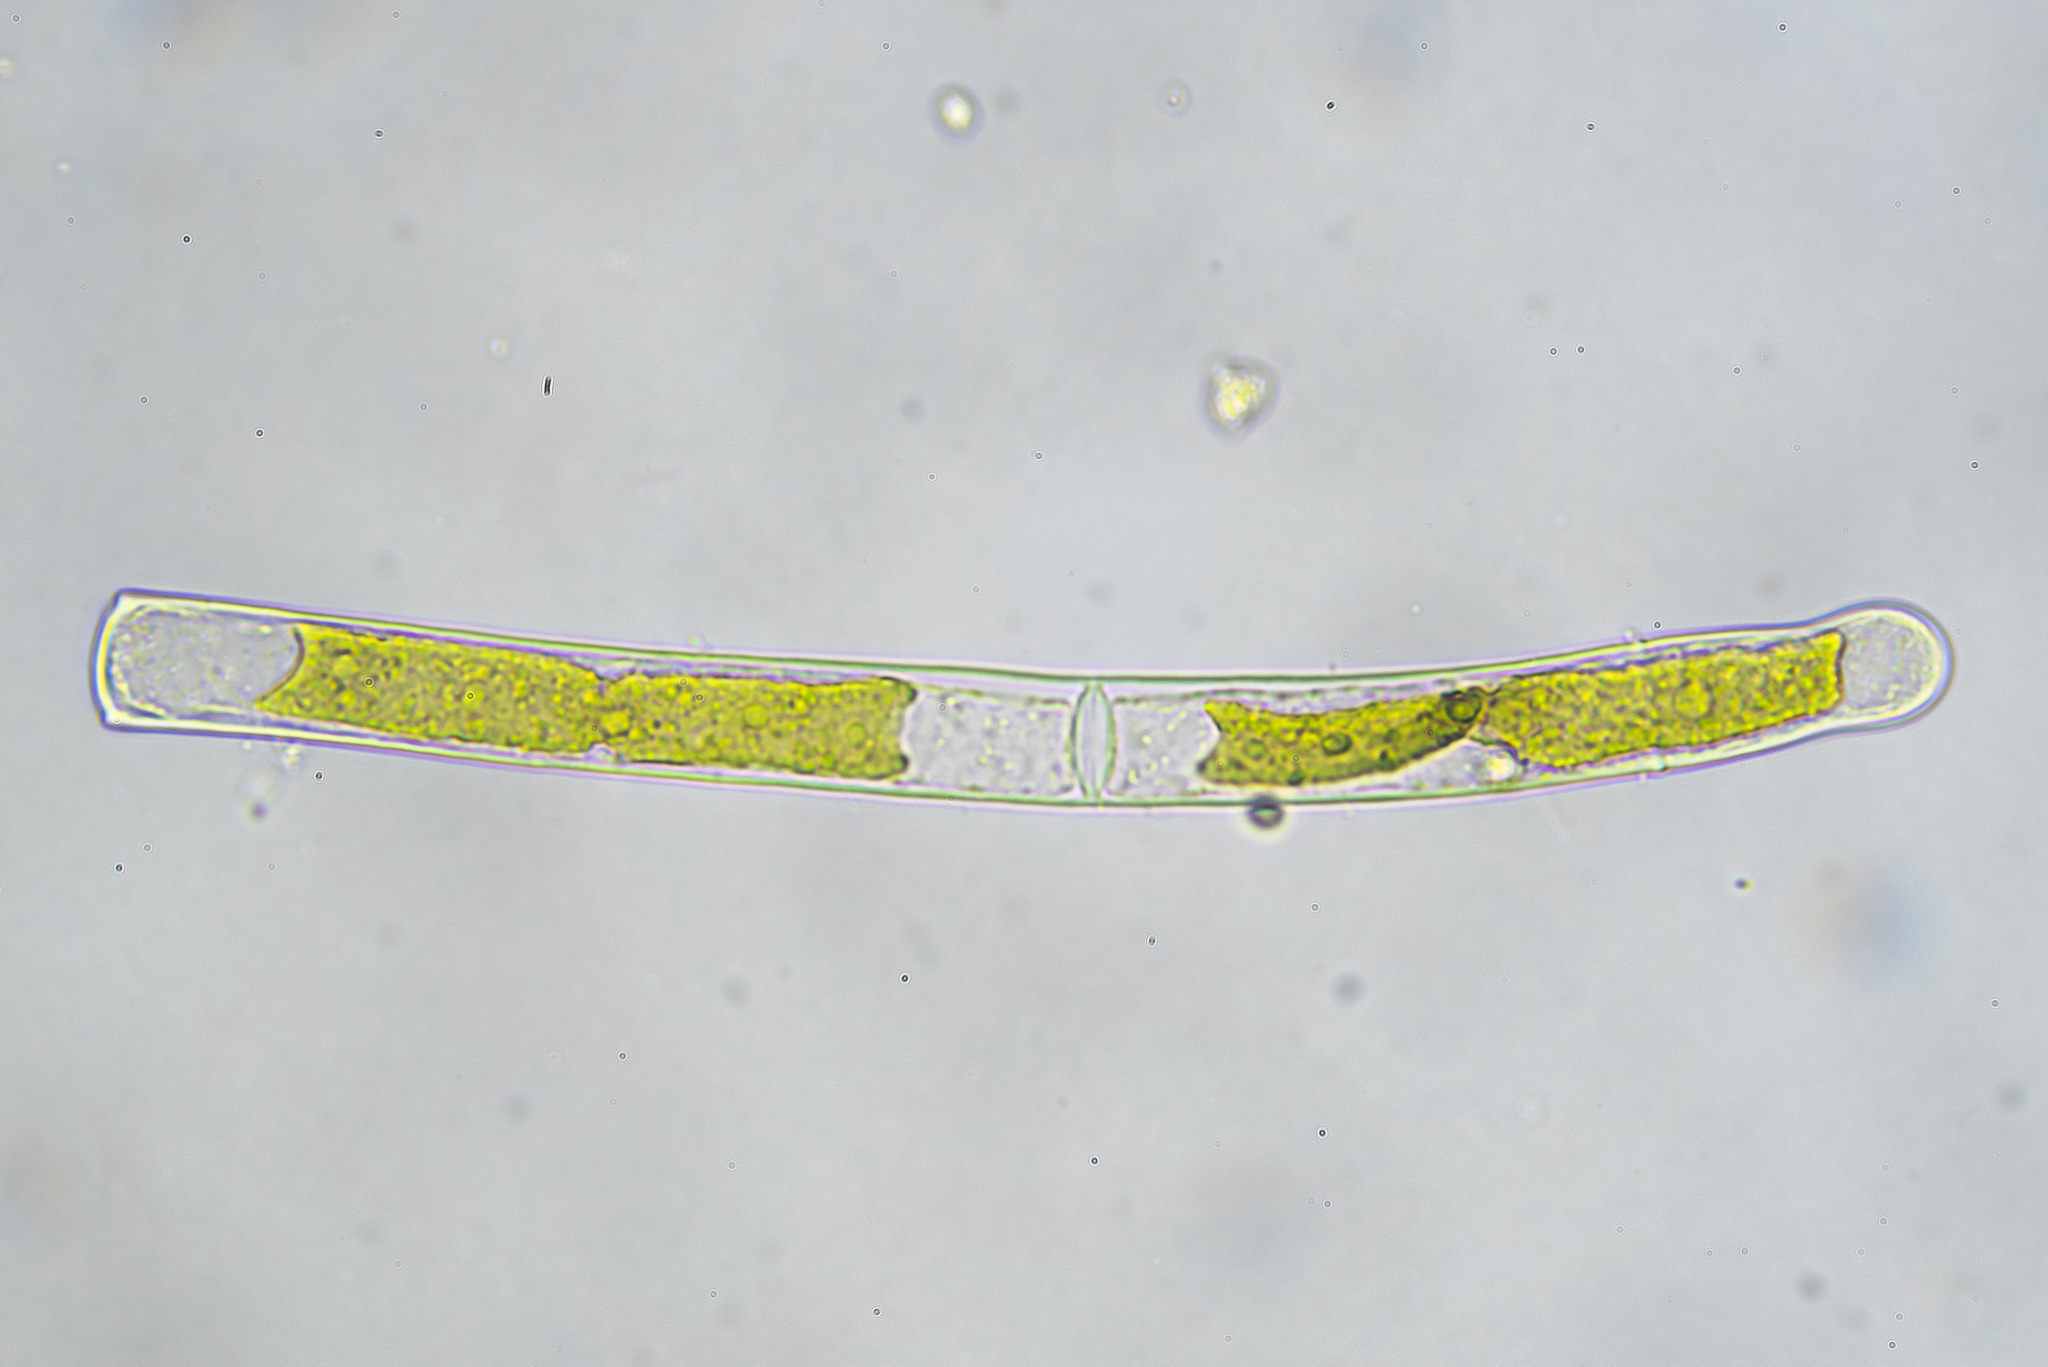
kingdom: Plantae
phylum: Charophyta
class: Zygnematophyceae
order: Zygnematales
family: Zygnemataceae
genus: Mougeotia
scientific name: Mougeotia
